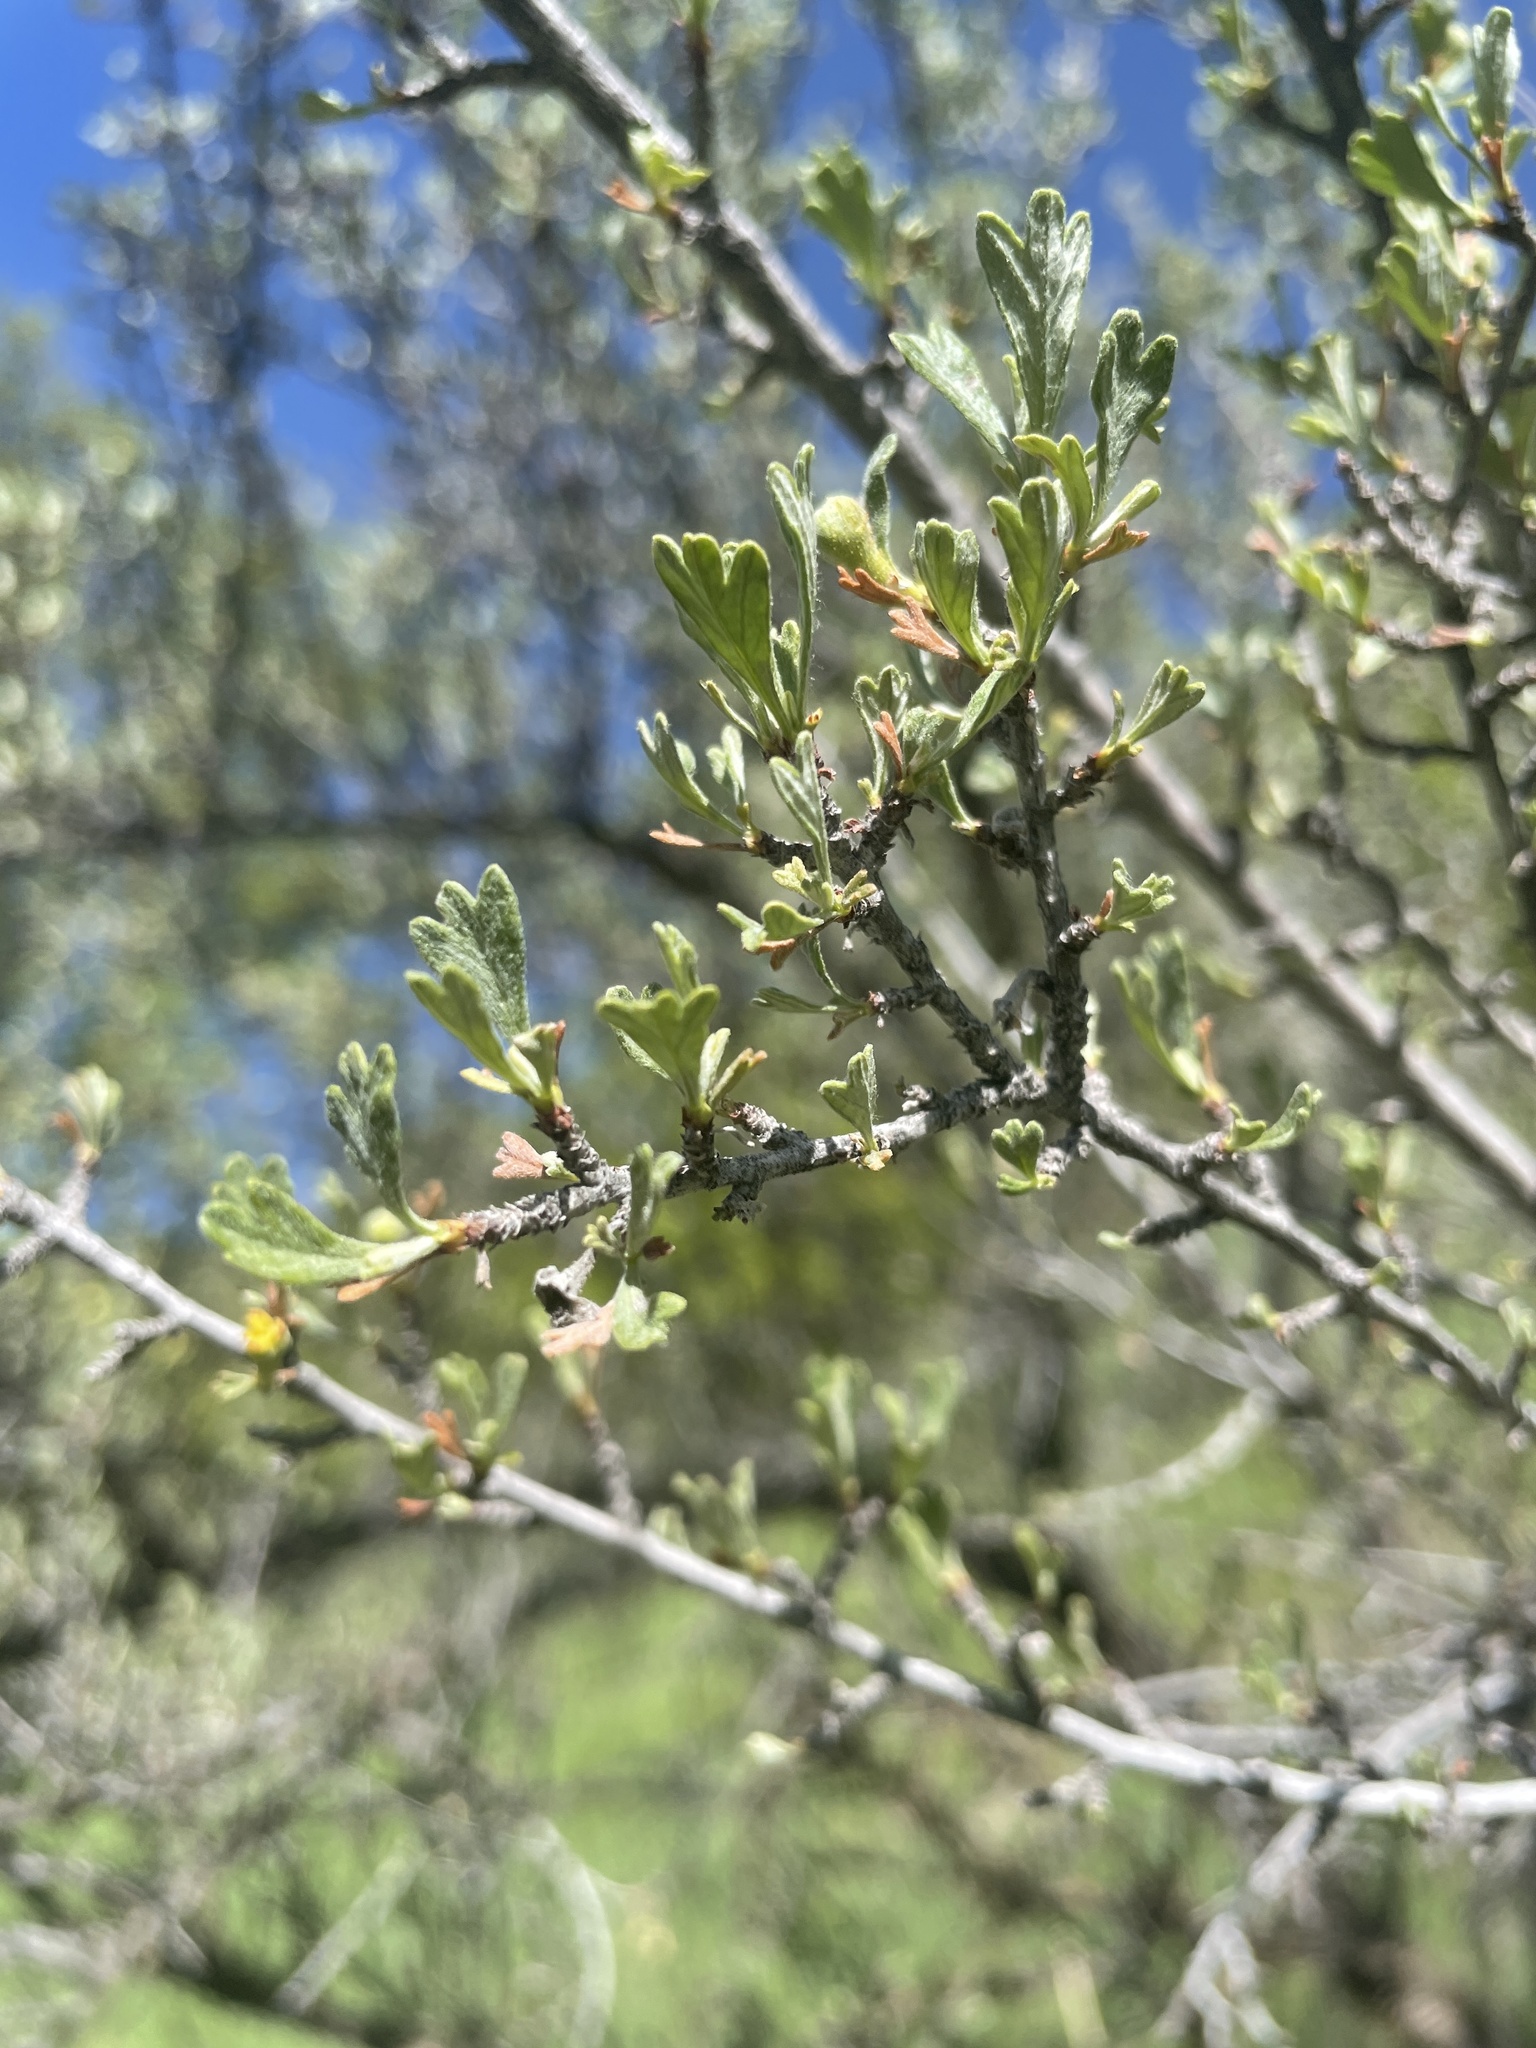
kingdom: Plantae
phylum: Tracheophyta
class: Magnoliopsida
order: Rosales
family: Rosaceae
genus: Purshia
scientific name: Purshia tridentata
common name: Antelope bitterbrush
